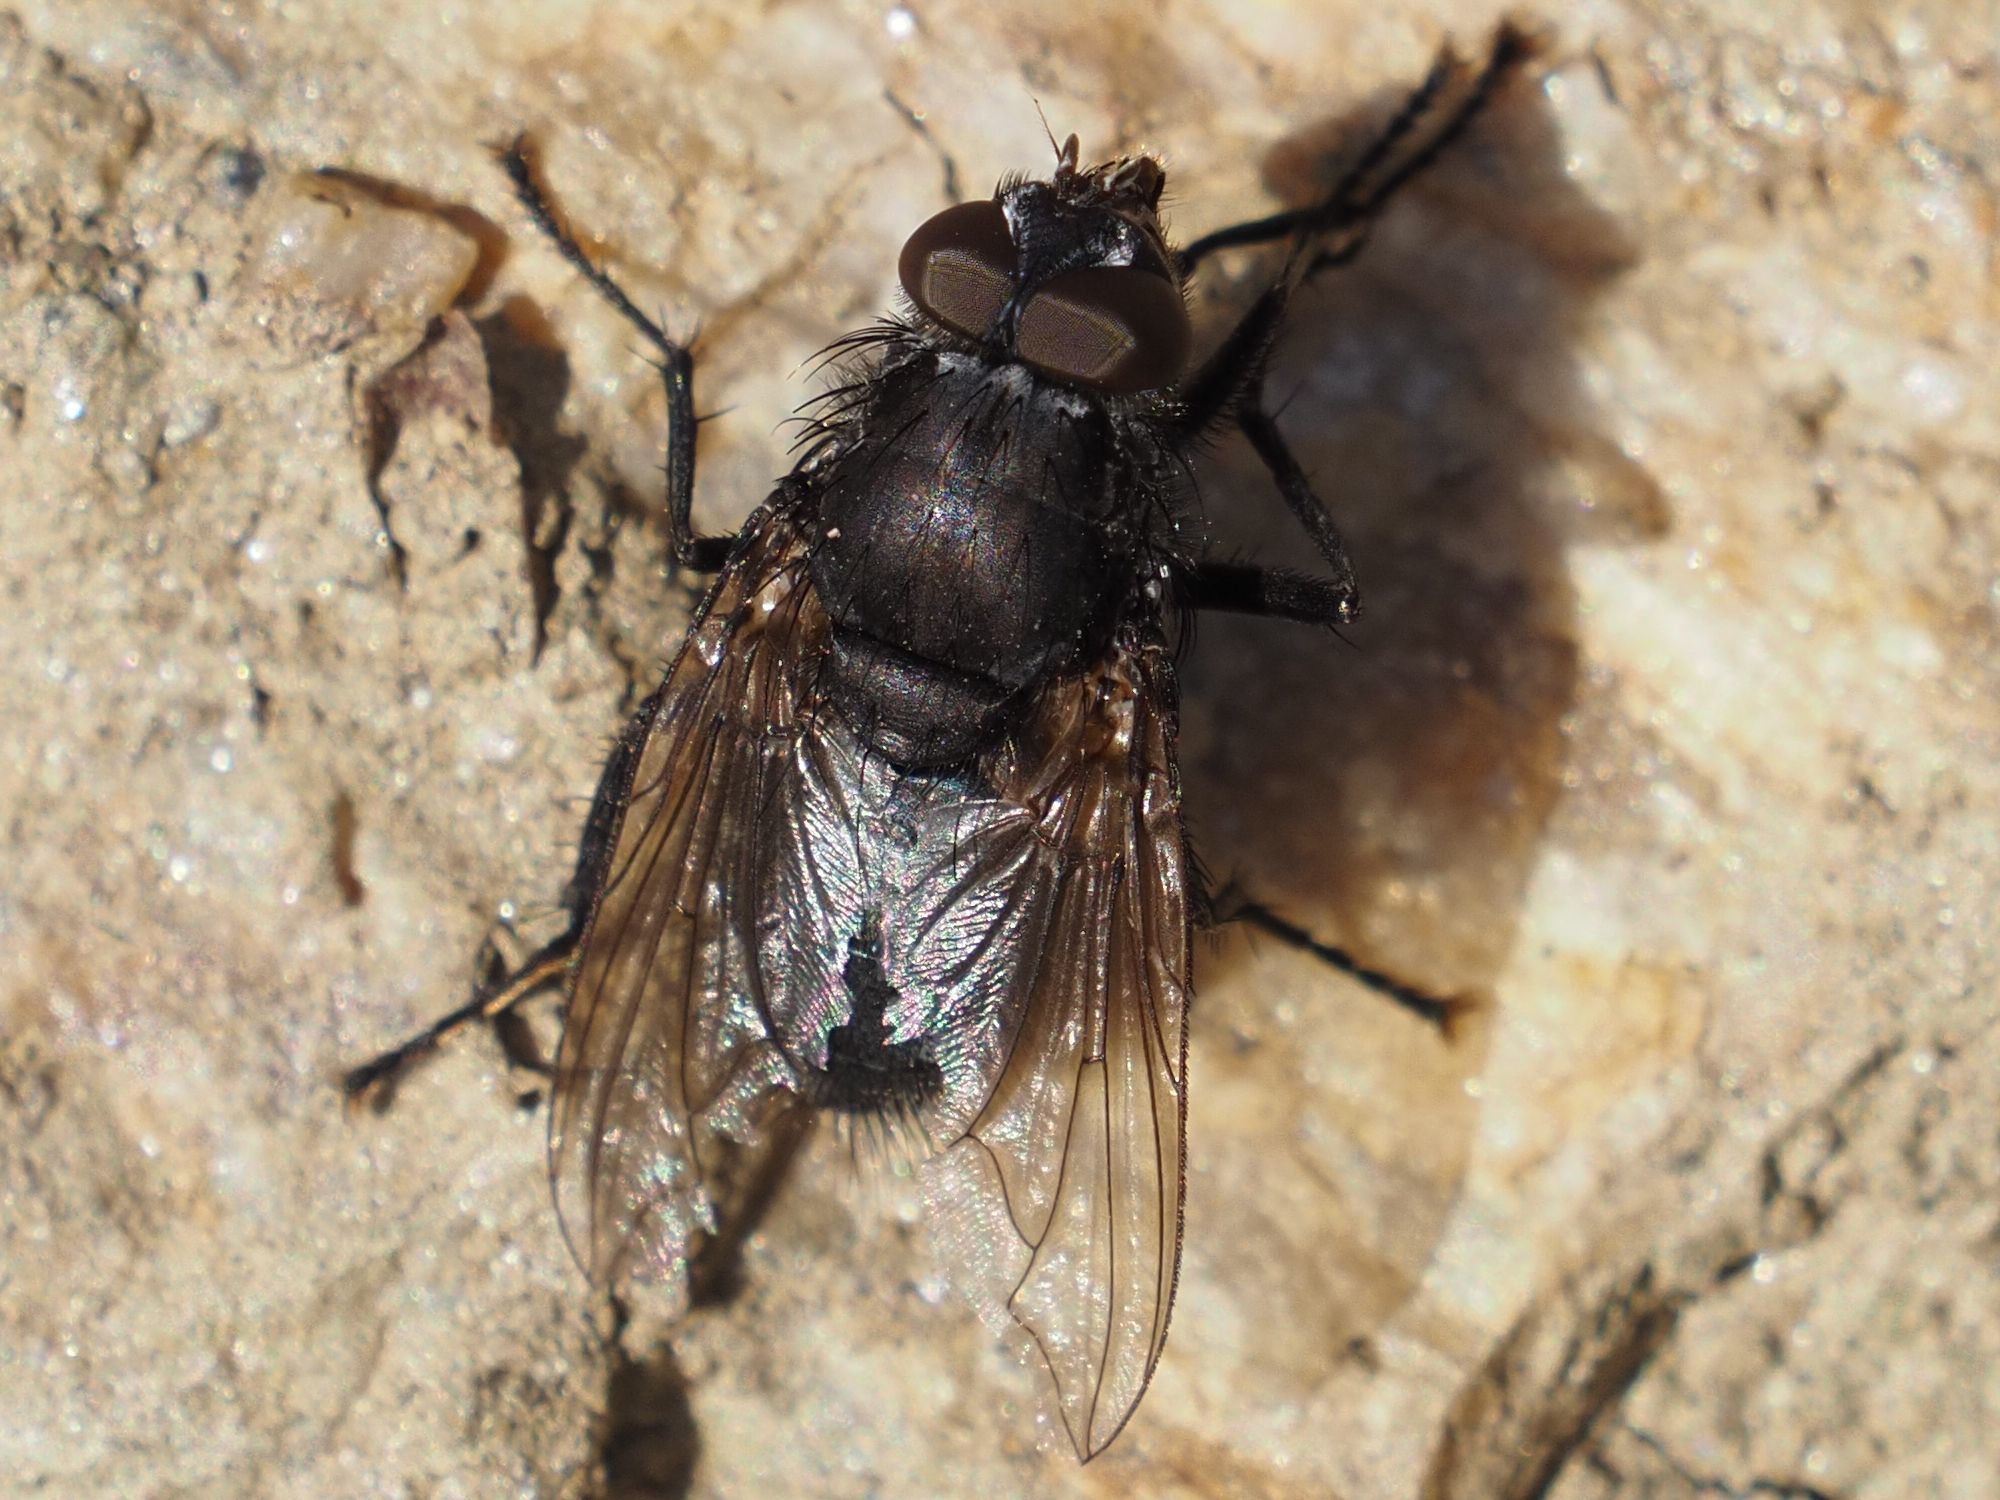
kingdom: Animalia
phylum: Arthropoda
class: Insecta
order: Diptera
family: Polleniidae
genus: Pollenia
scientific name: Pollenia vagabunda
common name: Vagabund cluster fly
